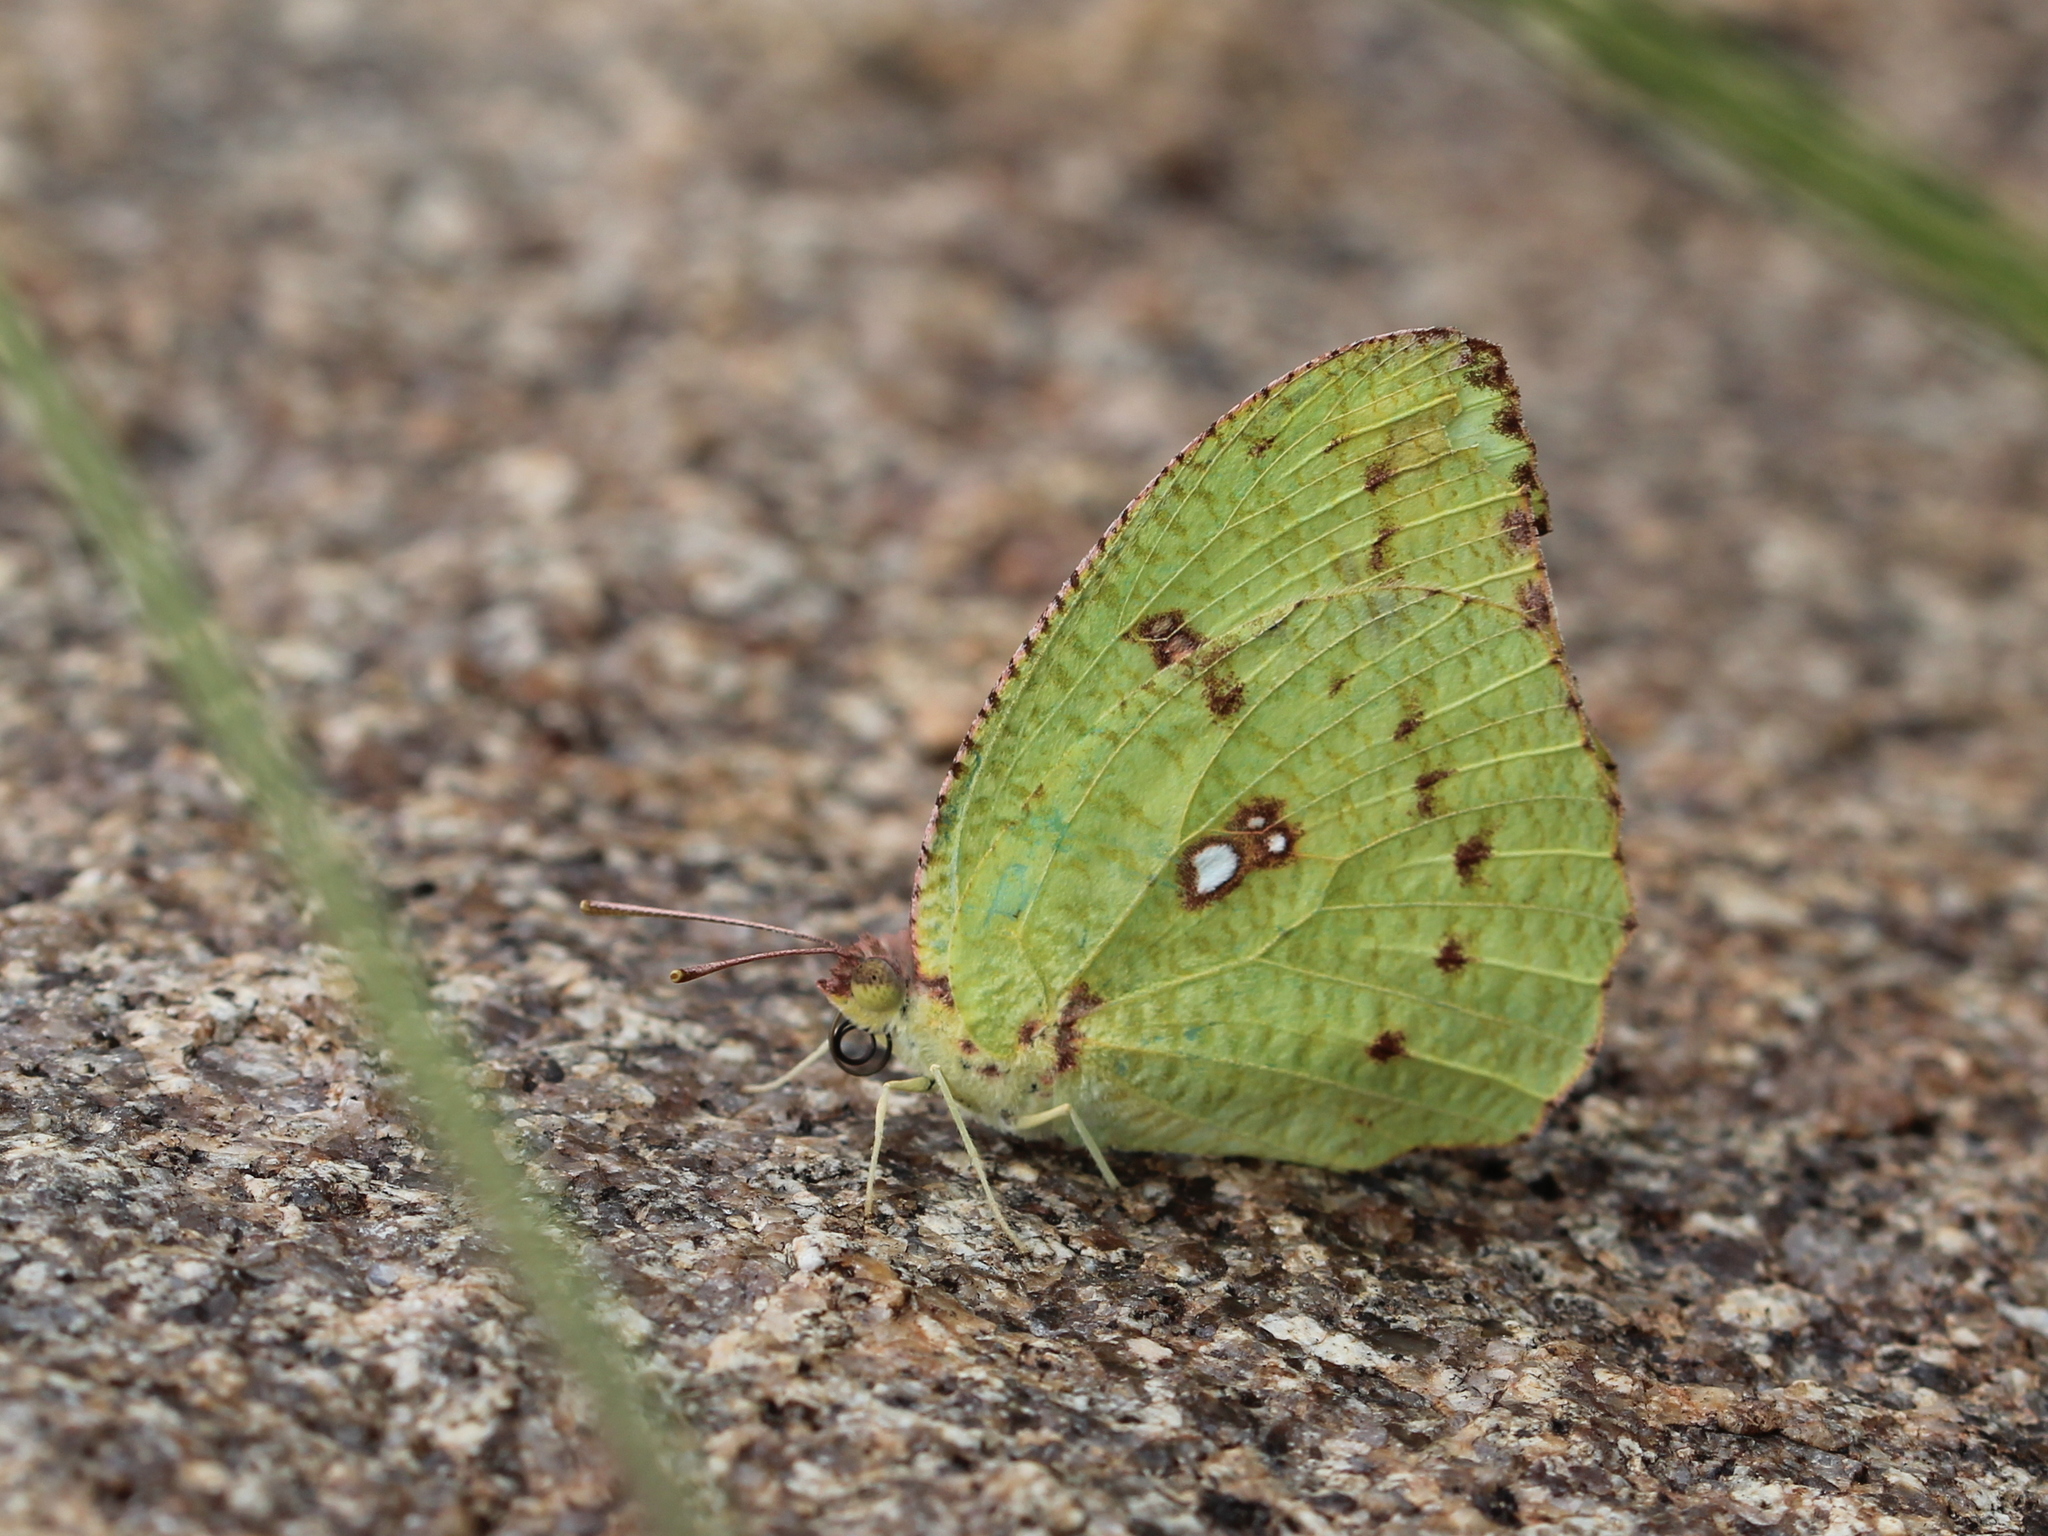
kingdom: Animalia
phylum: Arthropoda
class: Insecta
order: Lepidoptera
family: Pieridae
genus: Catopsilia
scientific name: Catopsilia pyranthe
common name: Mottled emigrant
